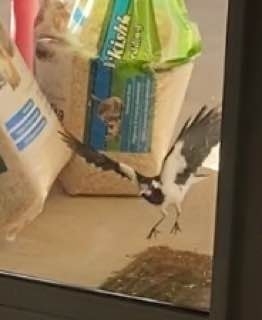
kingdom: Animalia
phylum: Chordata
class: Aves
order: Passeriformes
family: Monarchidae
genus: Grallina
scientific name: Grallina cyanoleuca
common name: Magpie-lark
